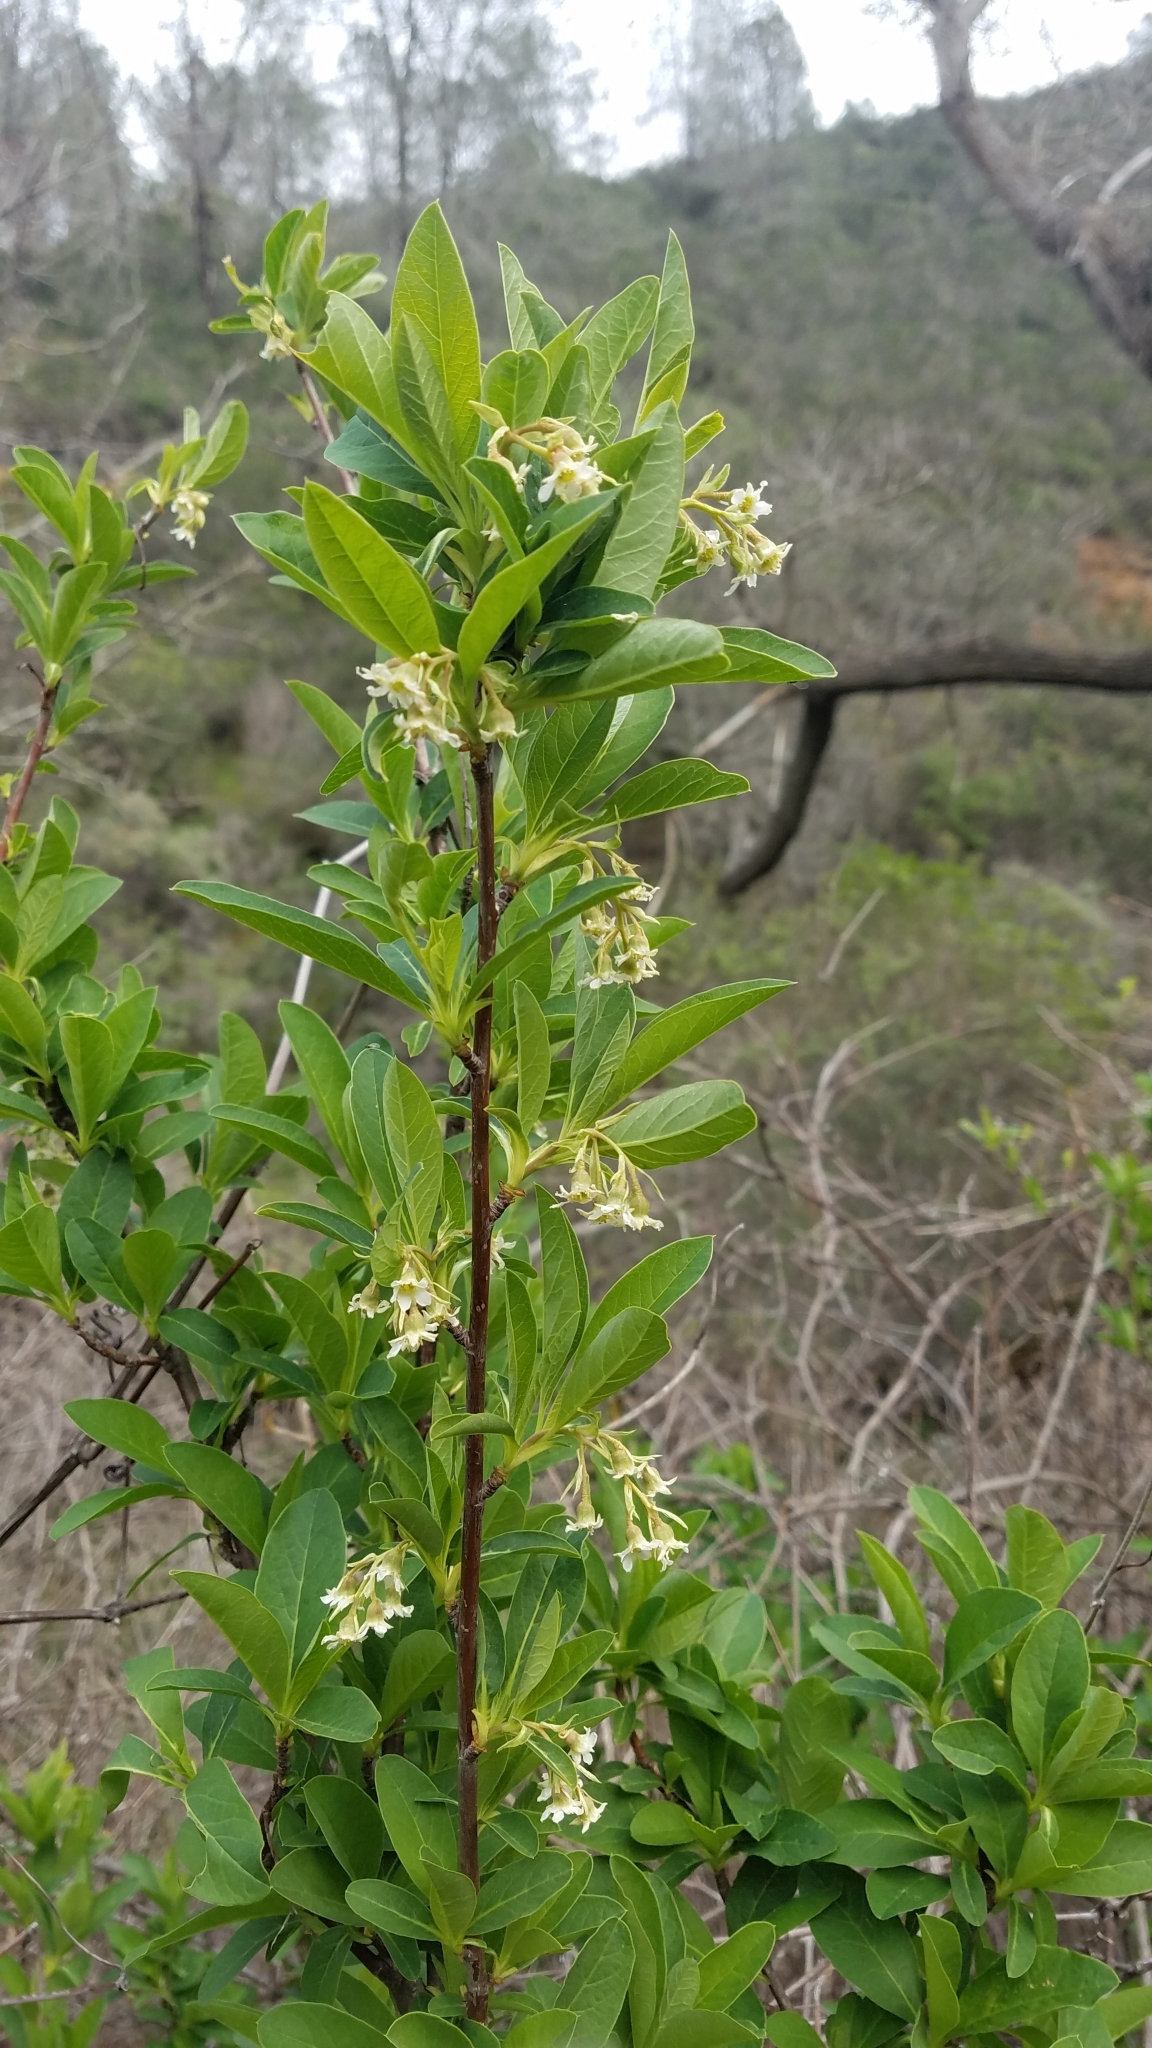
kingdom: Plantae
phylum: Tracheophyta
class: Magnoliopsida
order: Rosales
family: Rosaceae
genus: Oemleria
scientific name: Oemleria cerasiformis
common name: Osoberry
